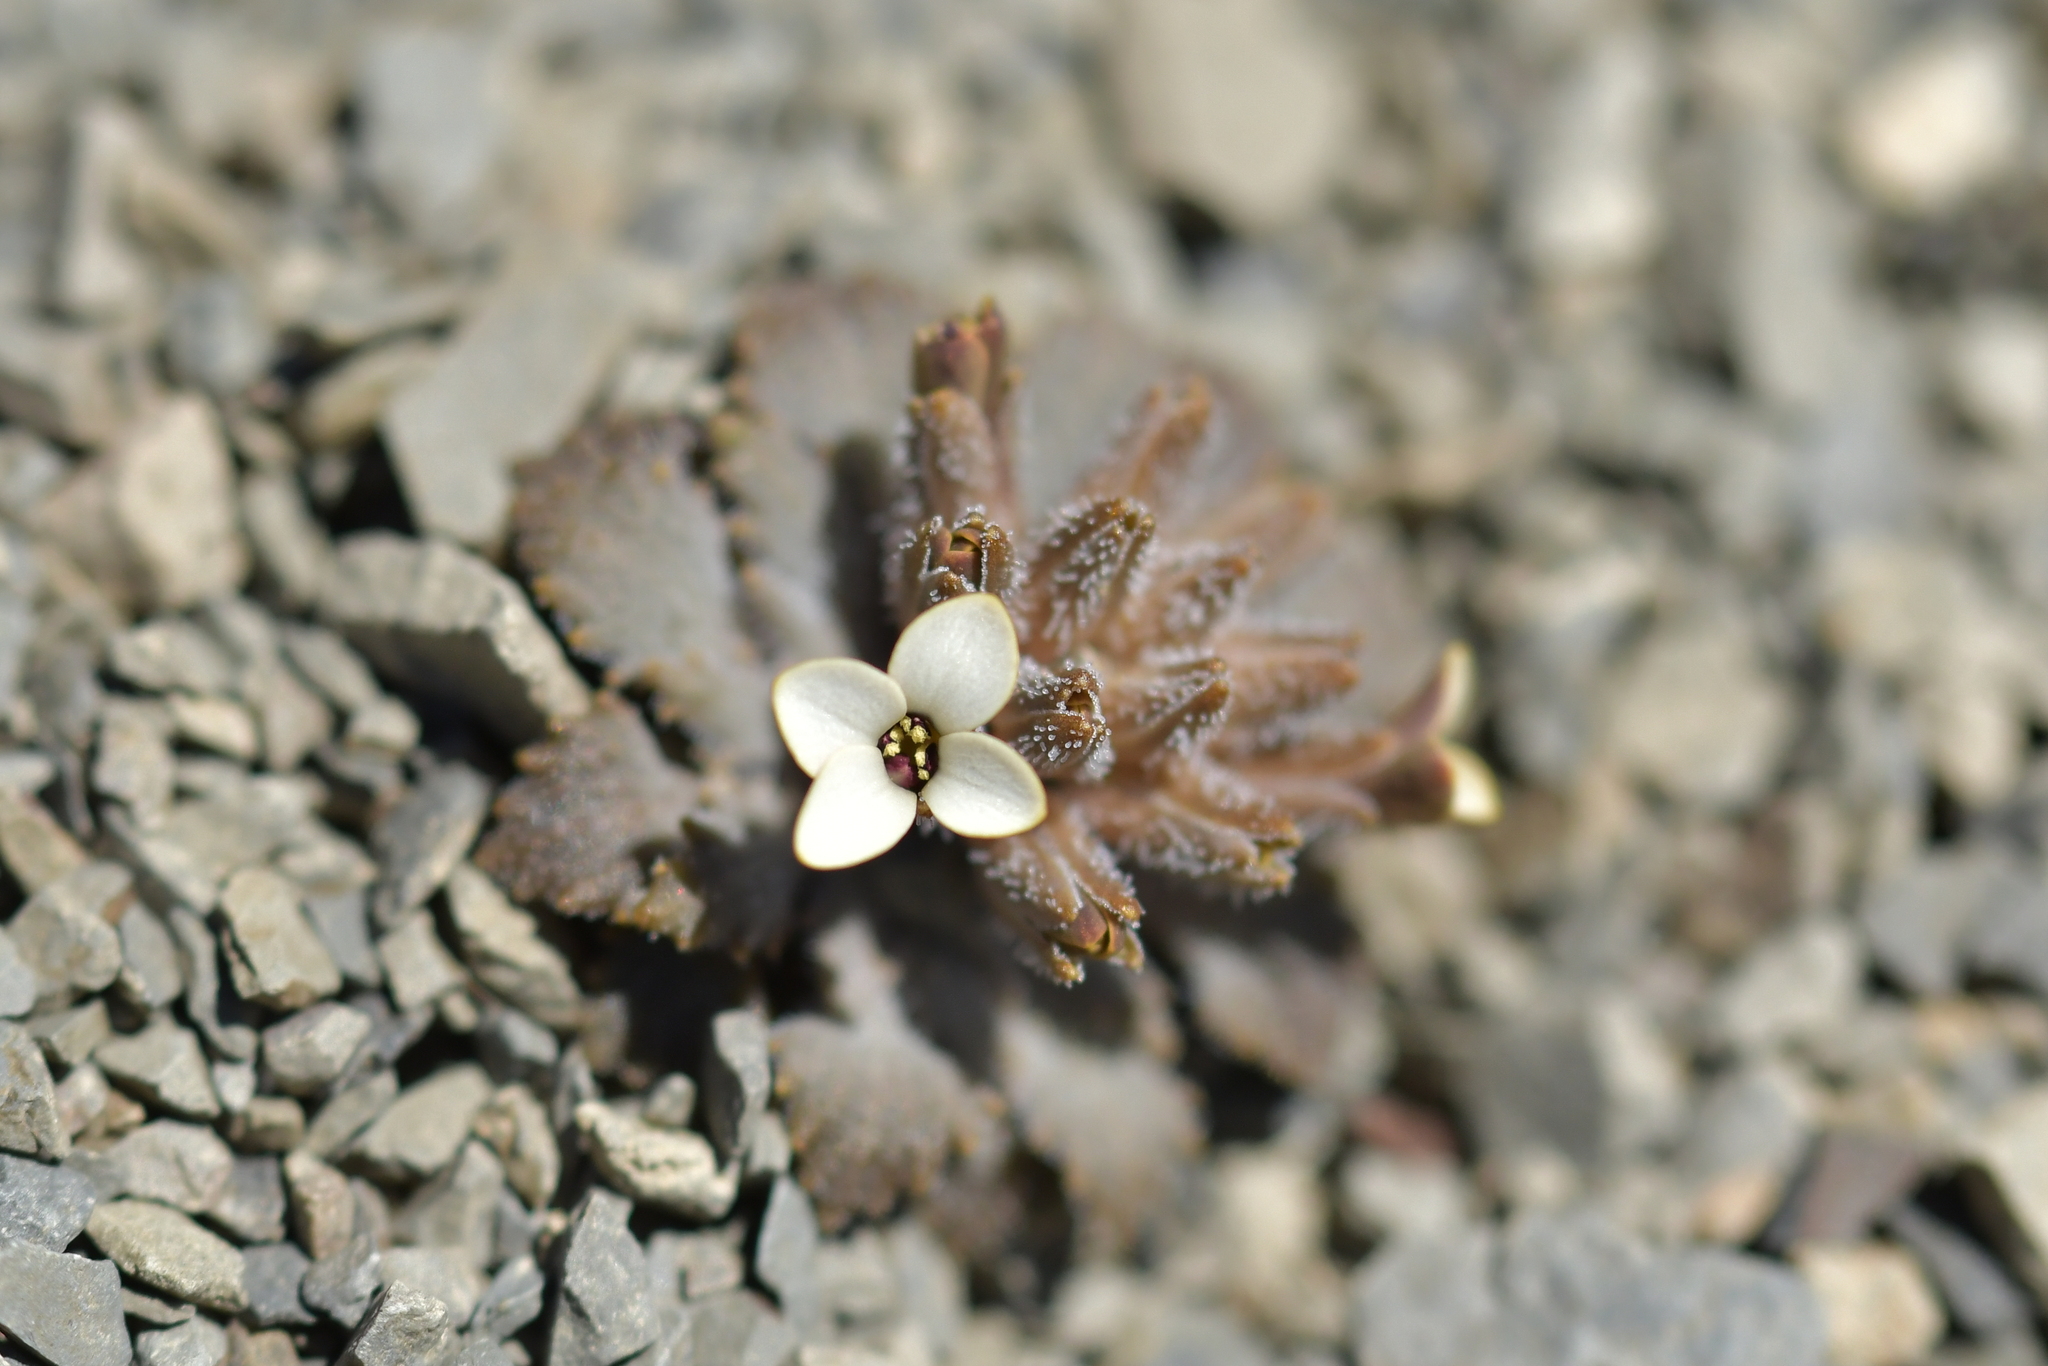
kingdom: Plantae
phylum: Tracheophyta
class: Magnoliopsida
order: Brassicales
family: Brassicaceae
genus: Notothlaspi
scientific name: Notothlaspi rosulatum
